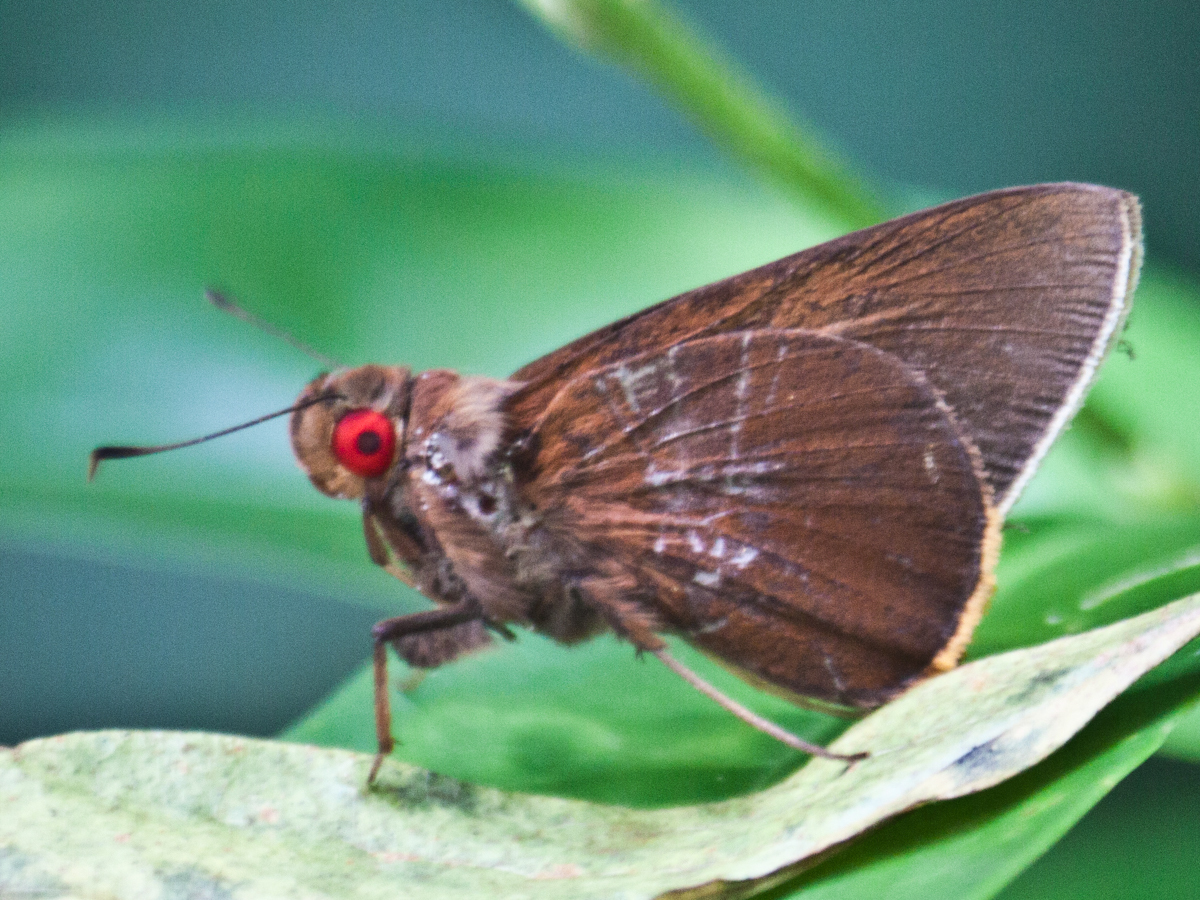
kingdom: Animalia
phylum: Arthropoda
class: Insecta
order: Lepidoptera
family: Hesperiidae
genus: Matapa
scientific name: Matapa druna
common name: Grey-brand redeye
